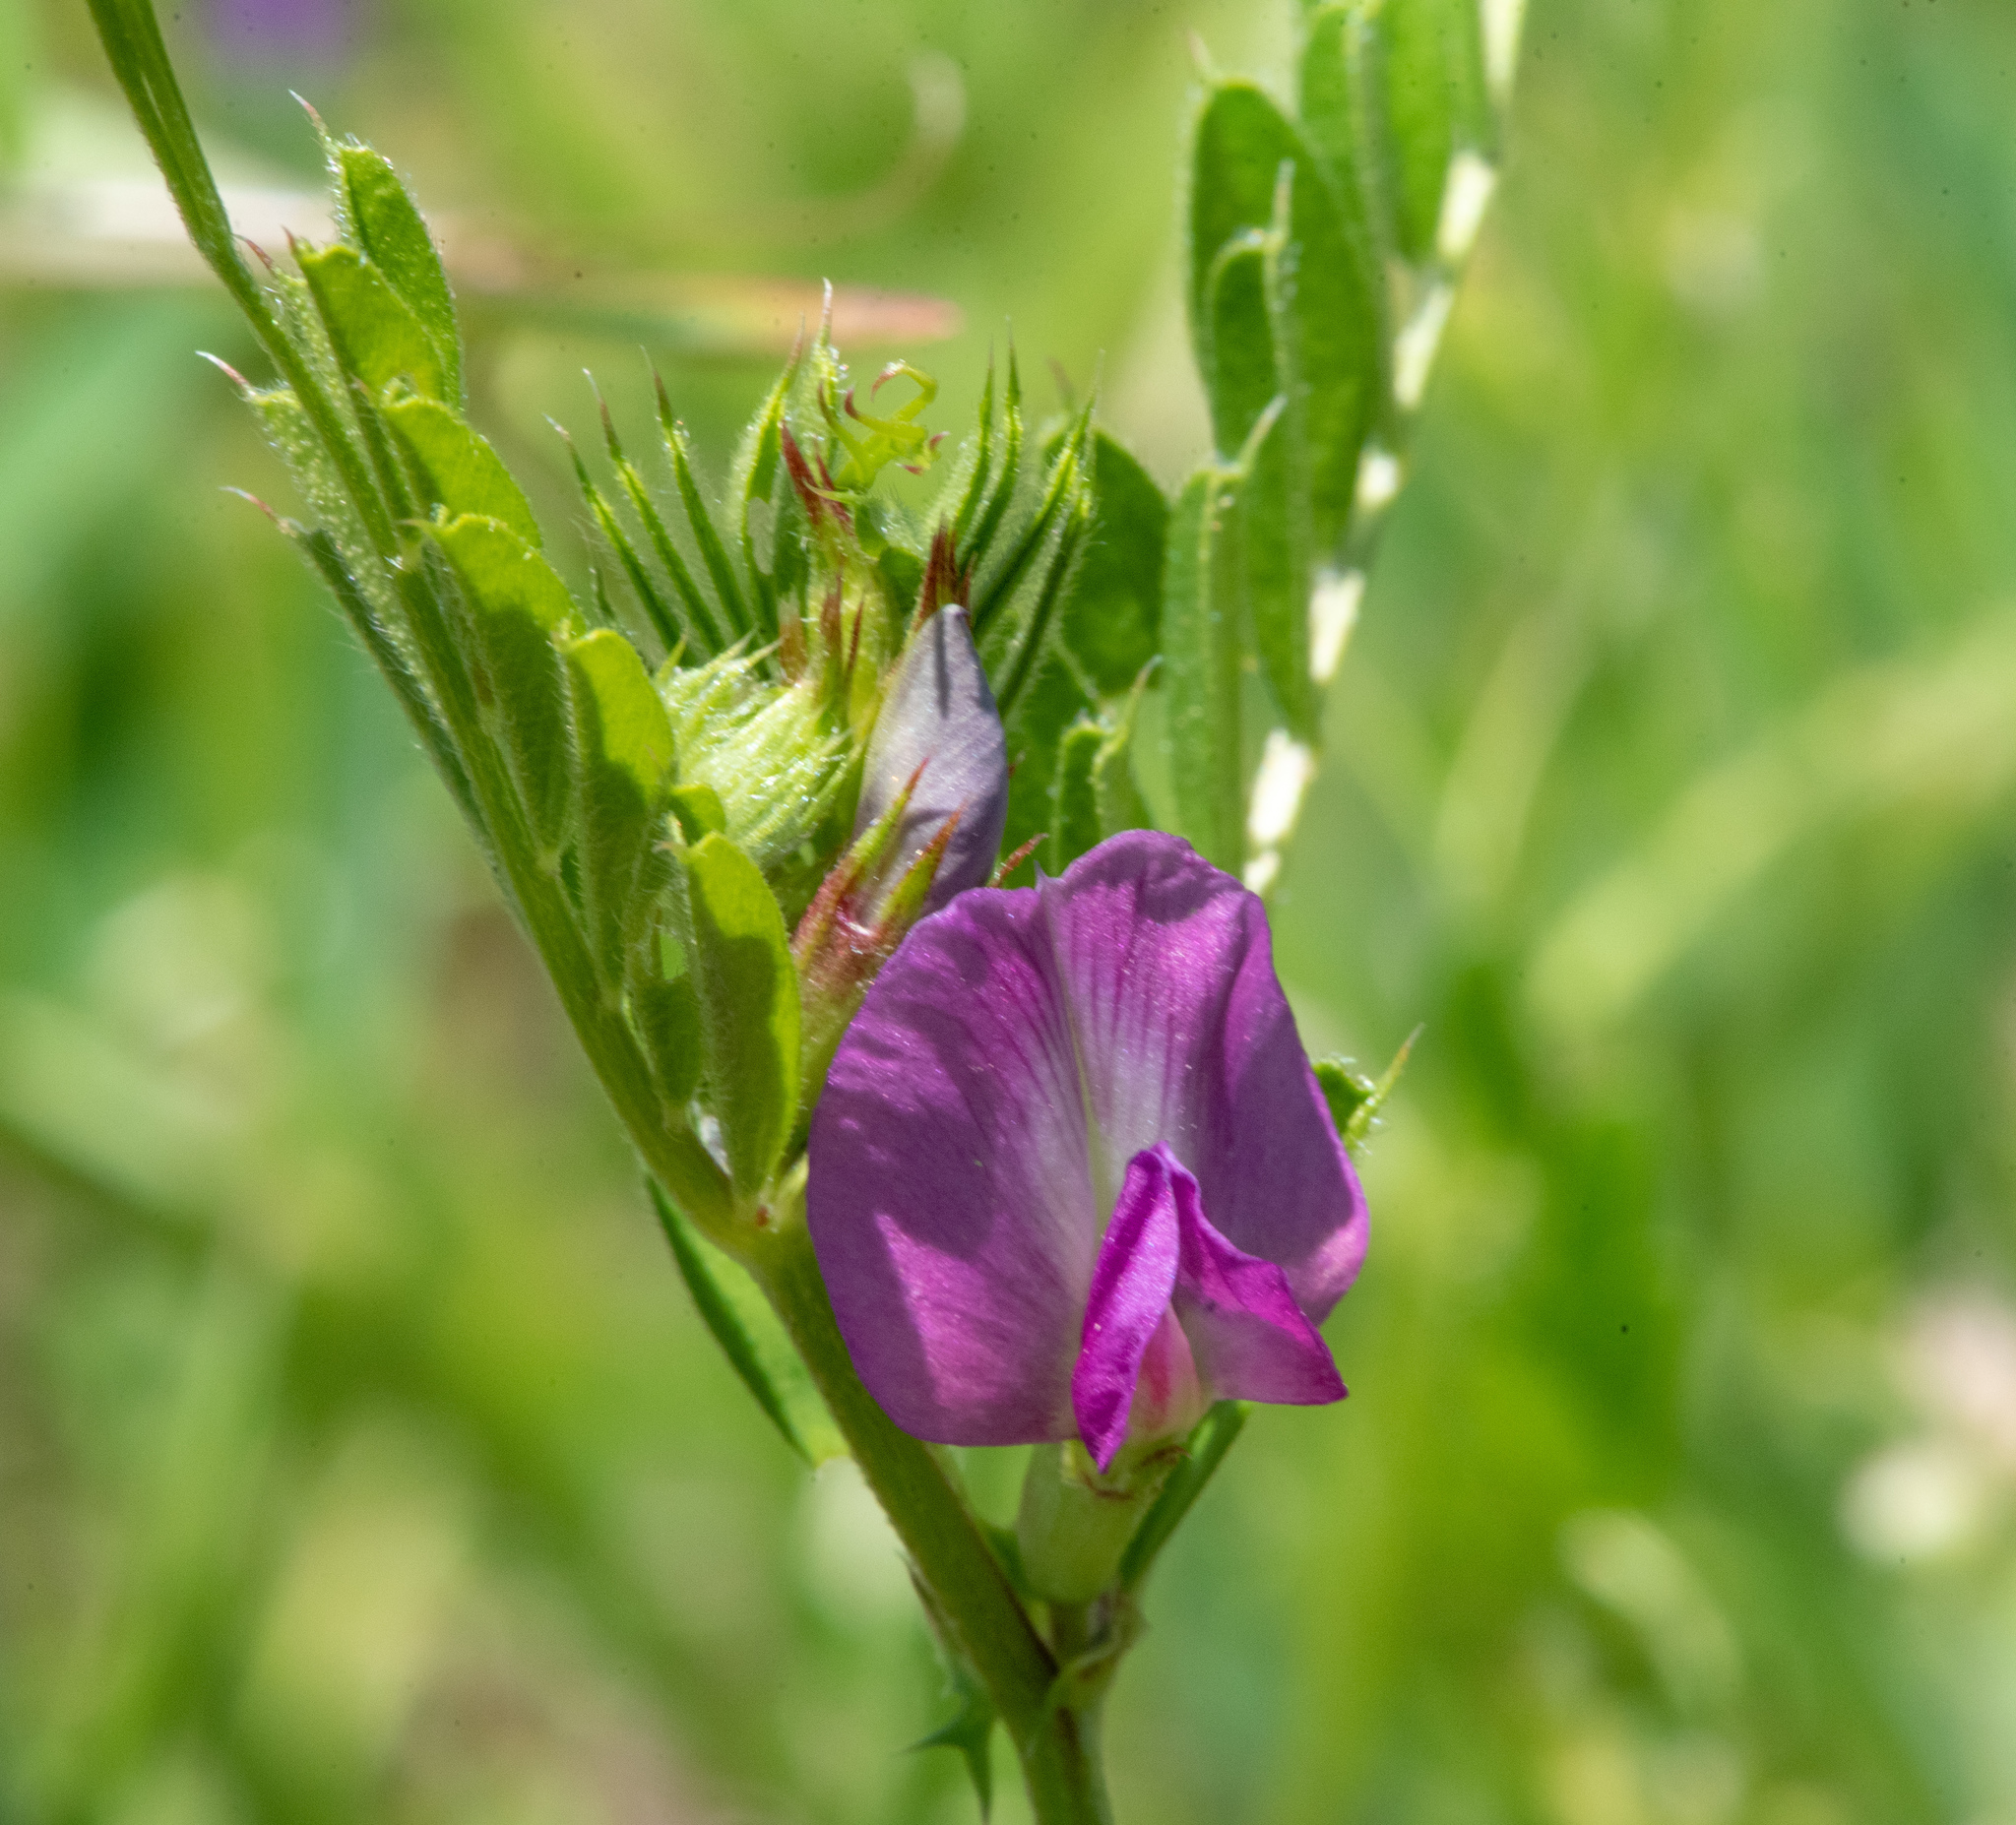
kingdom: Plantae
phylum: Tracheophyta
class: Magnoliopsida
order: Fabales
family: Fabaceae
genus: Vicia
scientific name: Vicia sativa
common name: Garden vetch
